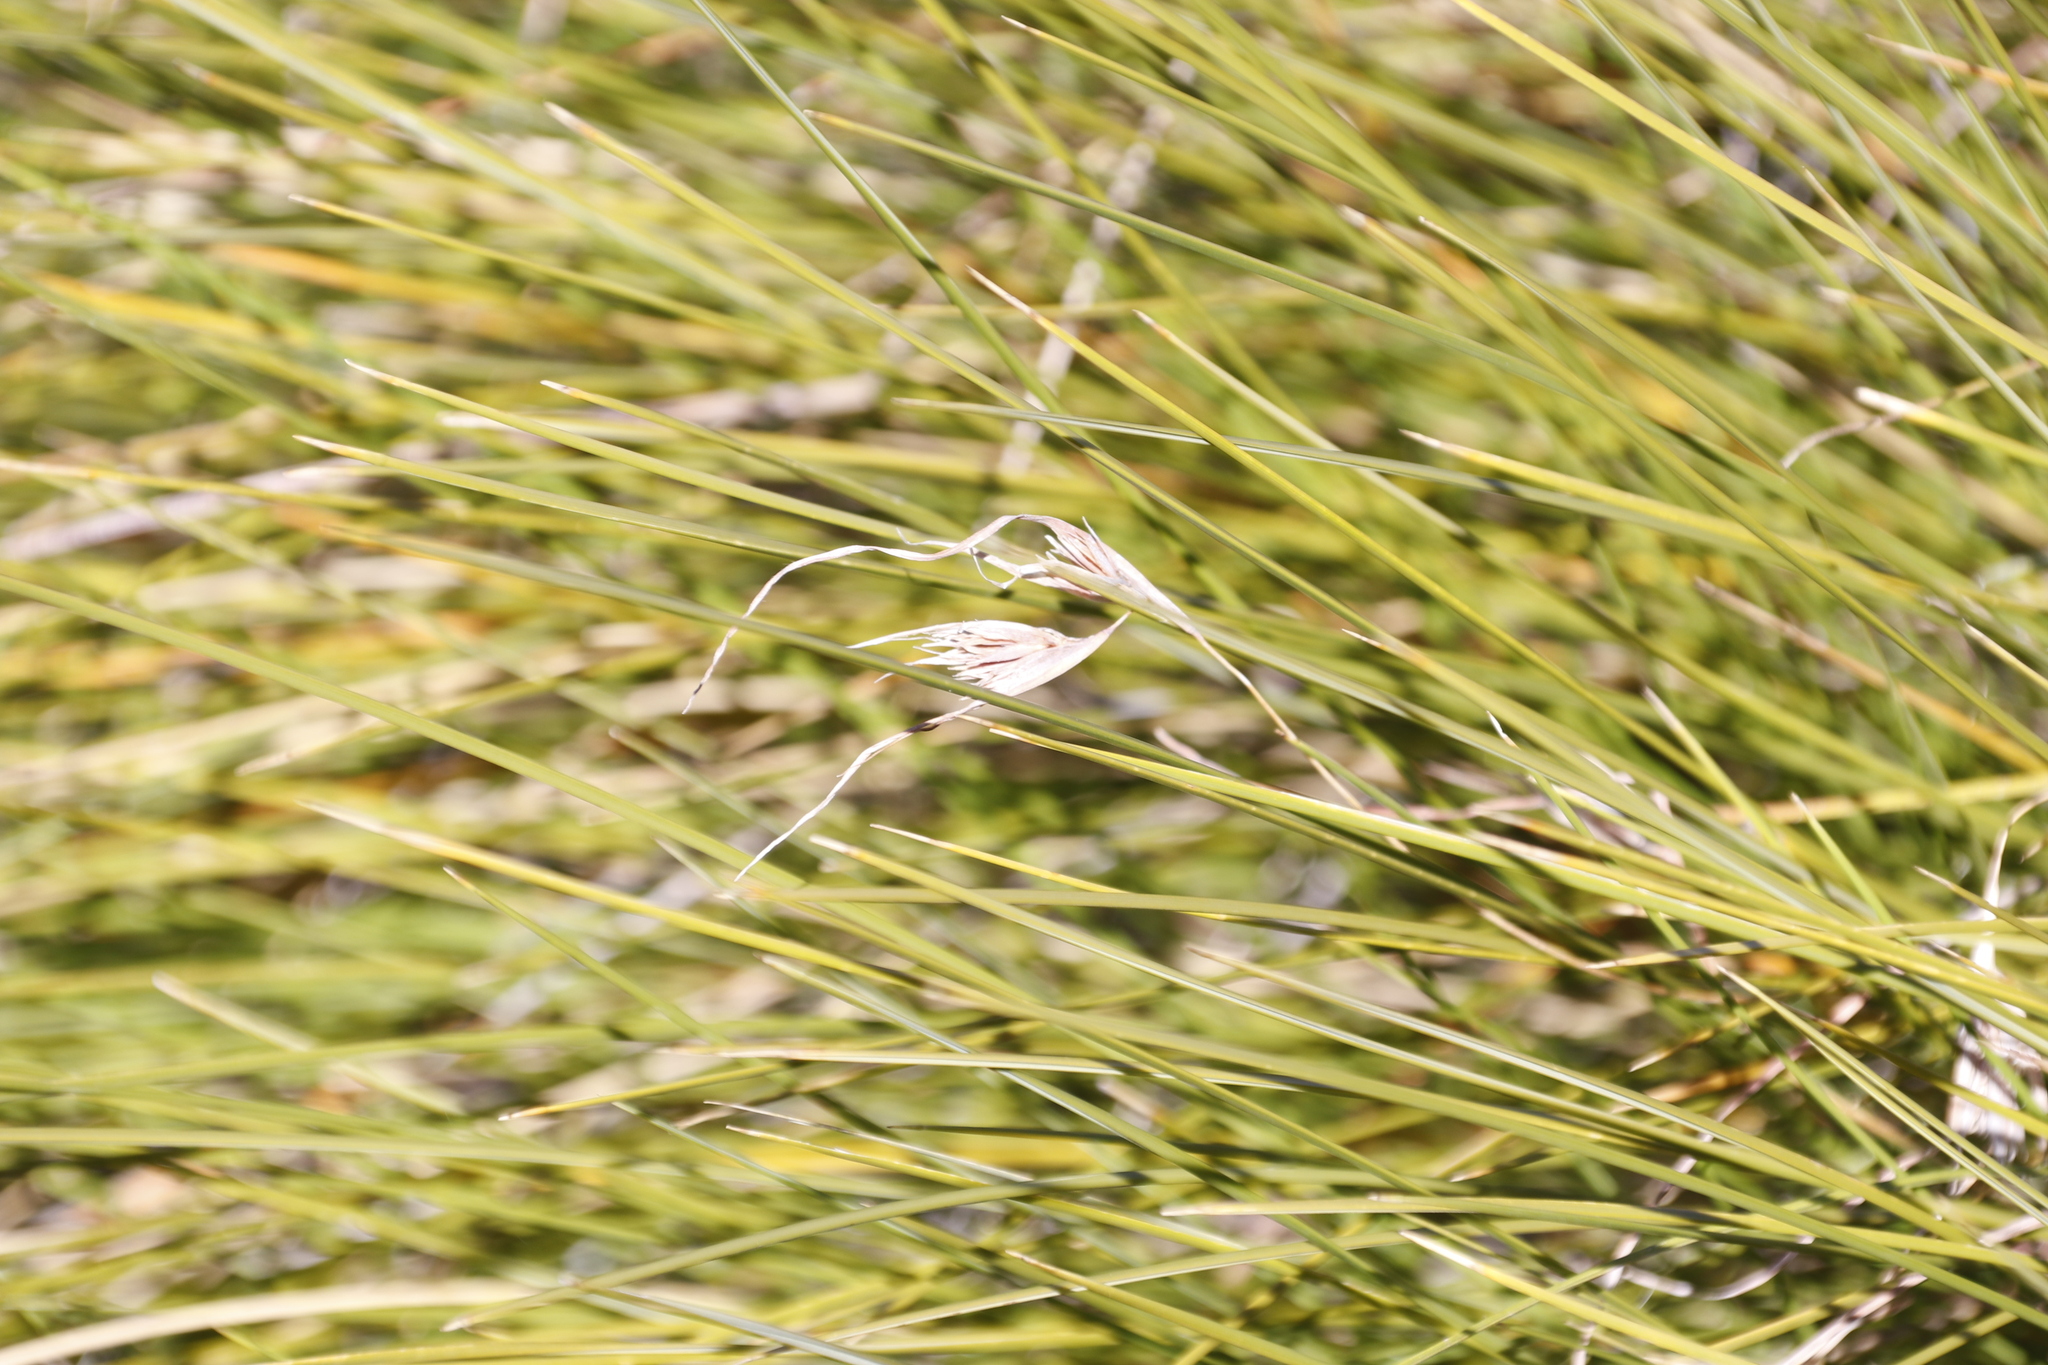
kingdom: Plantae
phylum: Tracheophyta
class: Liliopsida
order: Poales
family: Poaceae
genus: Themeda
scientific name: Themeda triandra
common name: Kangaroo grass
